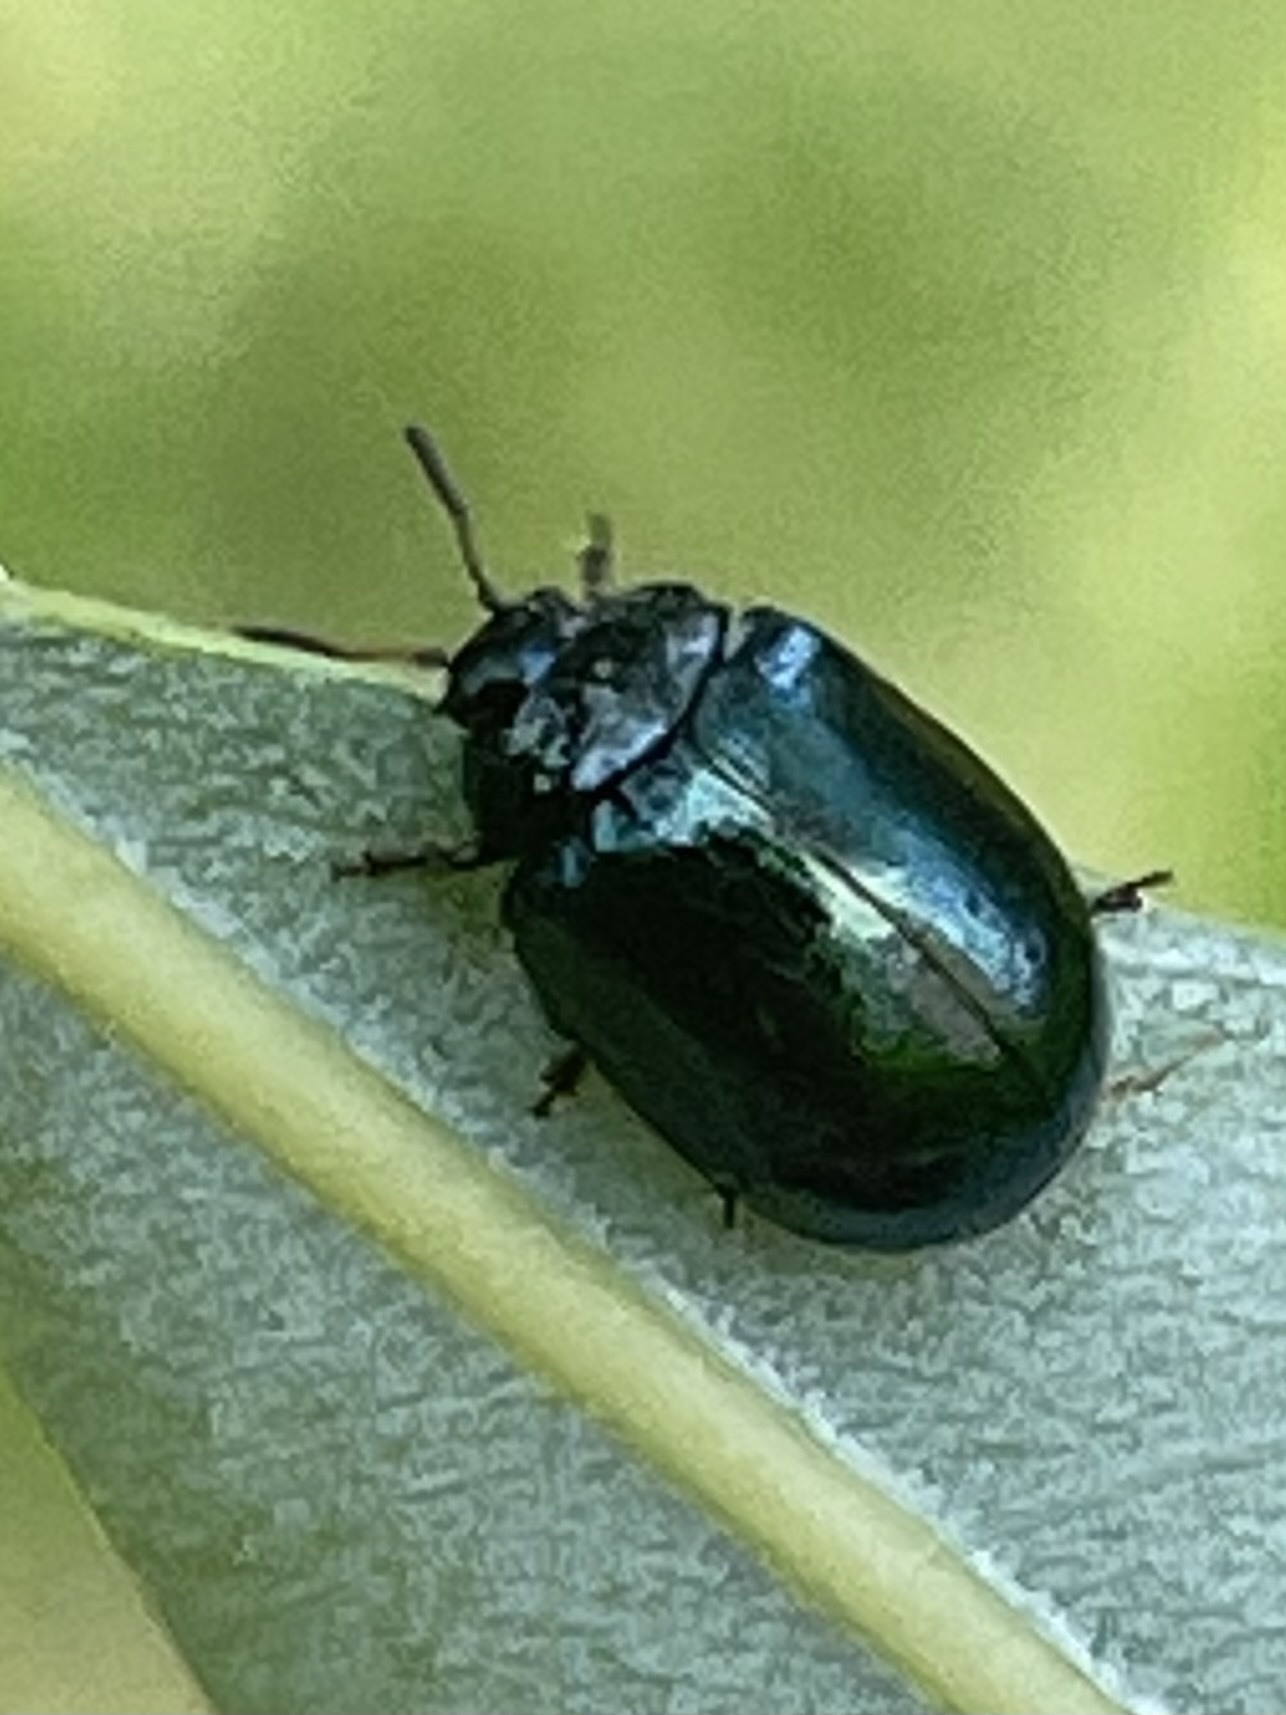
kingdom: Animalia
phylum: Arthropoda
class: Insecta
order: Coleoptera
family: Chrysomelidae
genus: Plagiodera
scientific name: Plagiodera versicolora
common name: Imported willow leaf beetle
